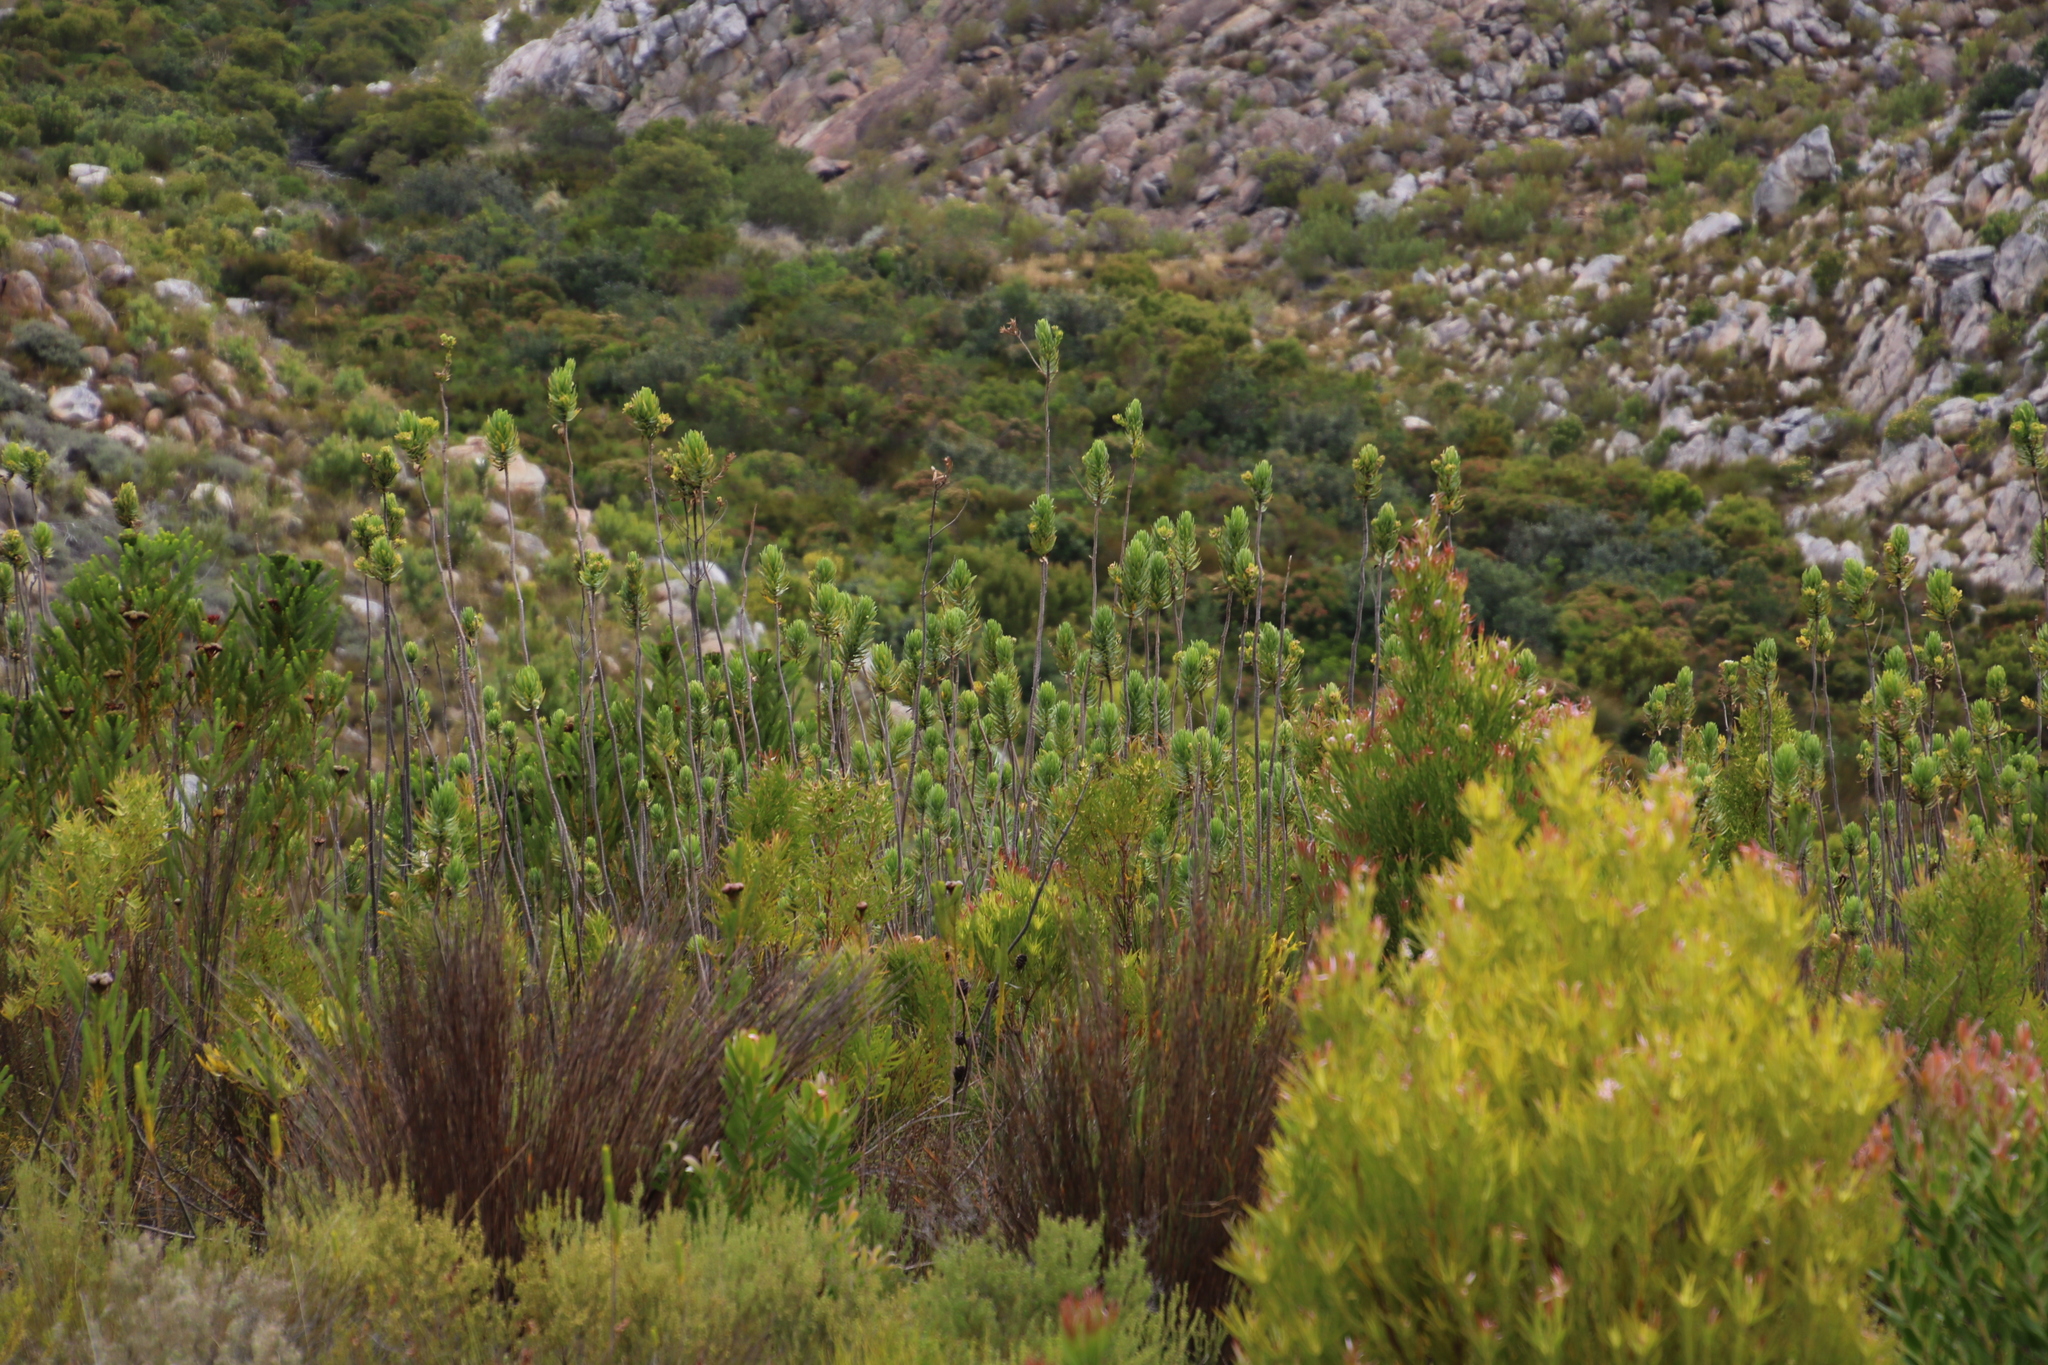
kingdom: Plantae
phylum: Tracheophyta
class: Magnoliopsida
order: Asterales
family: Asteraceae
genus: Osmitopsis
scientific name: Osmitopsis asteriscoides
